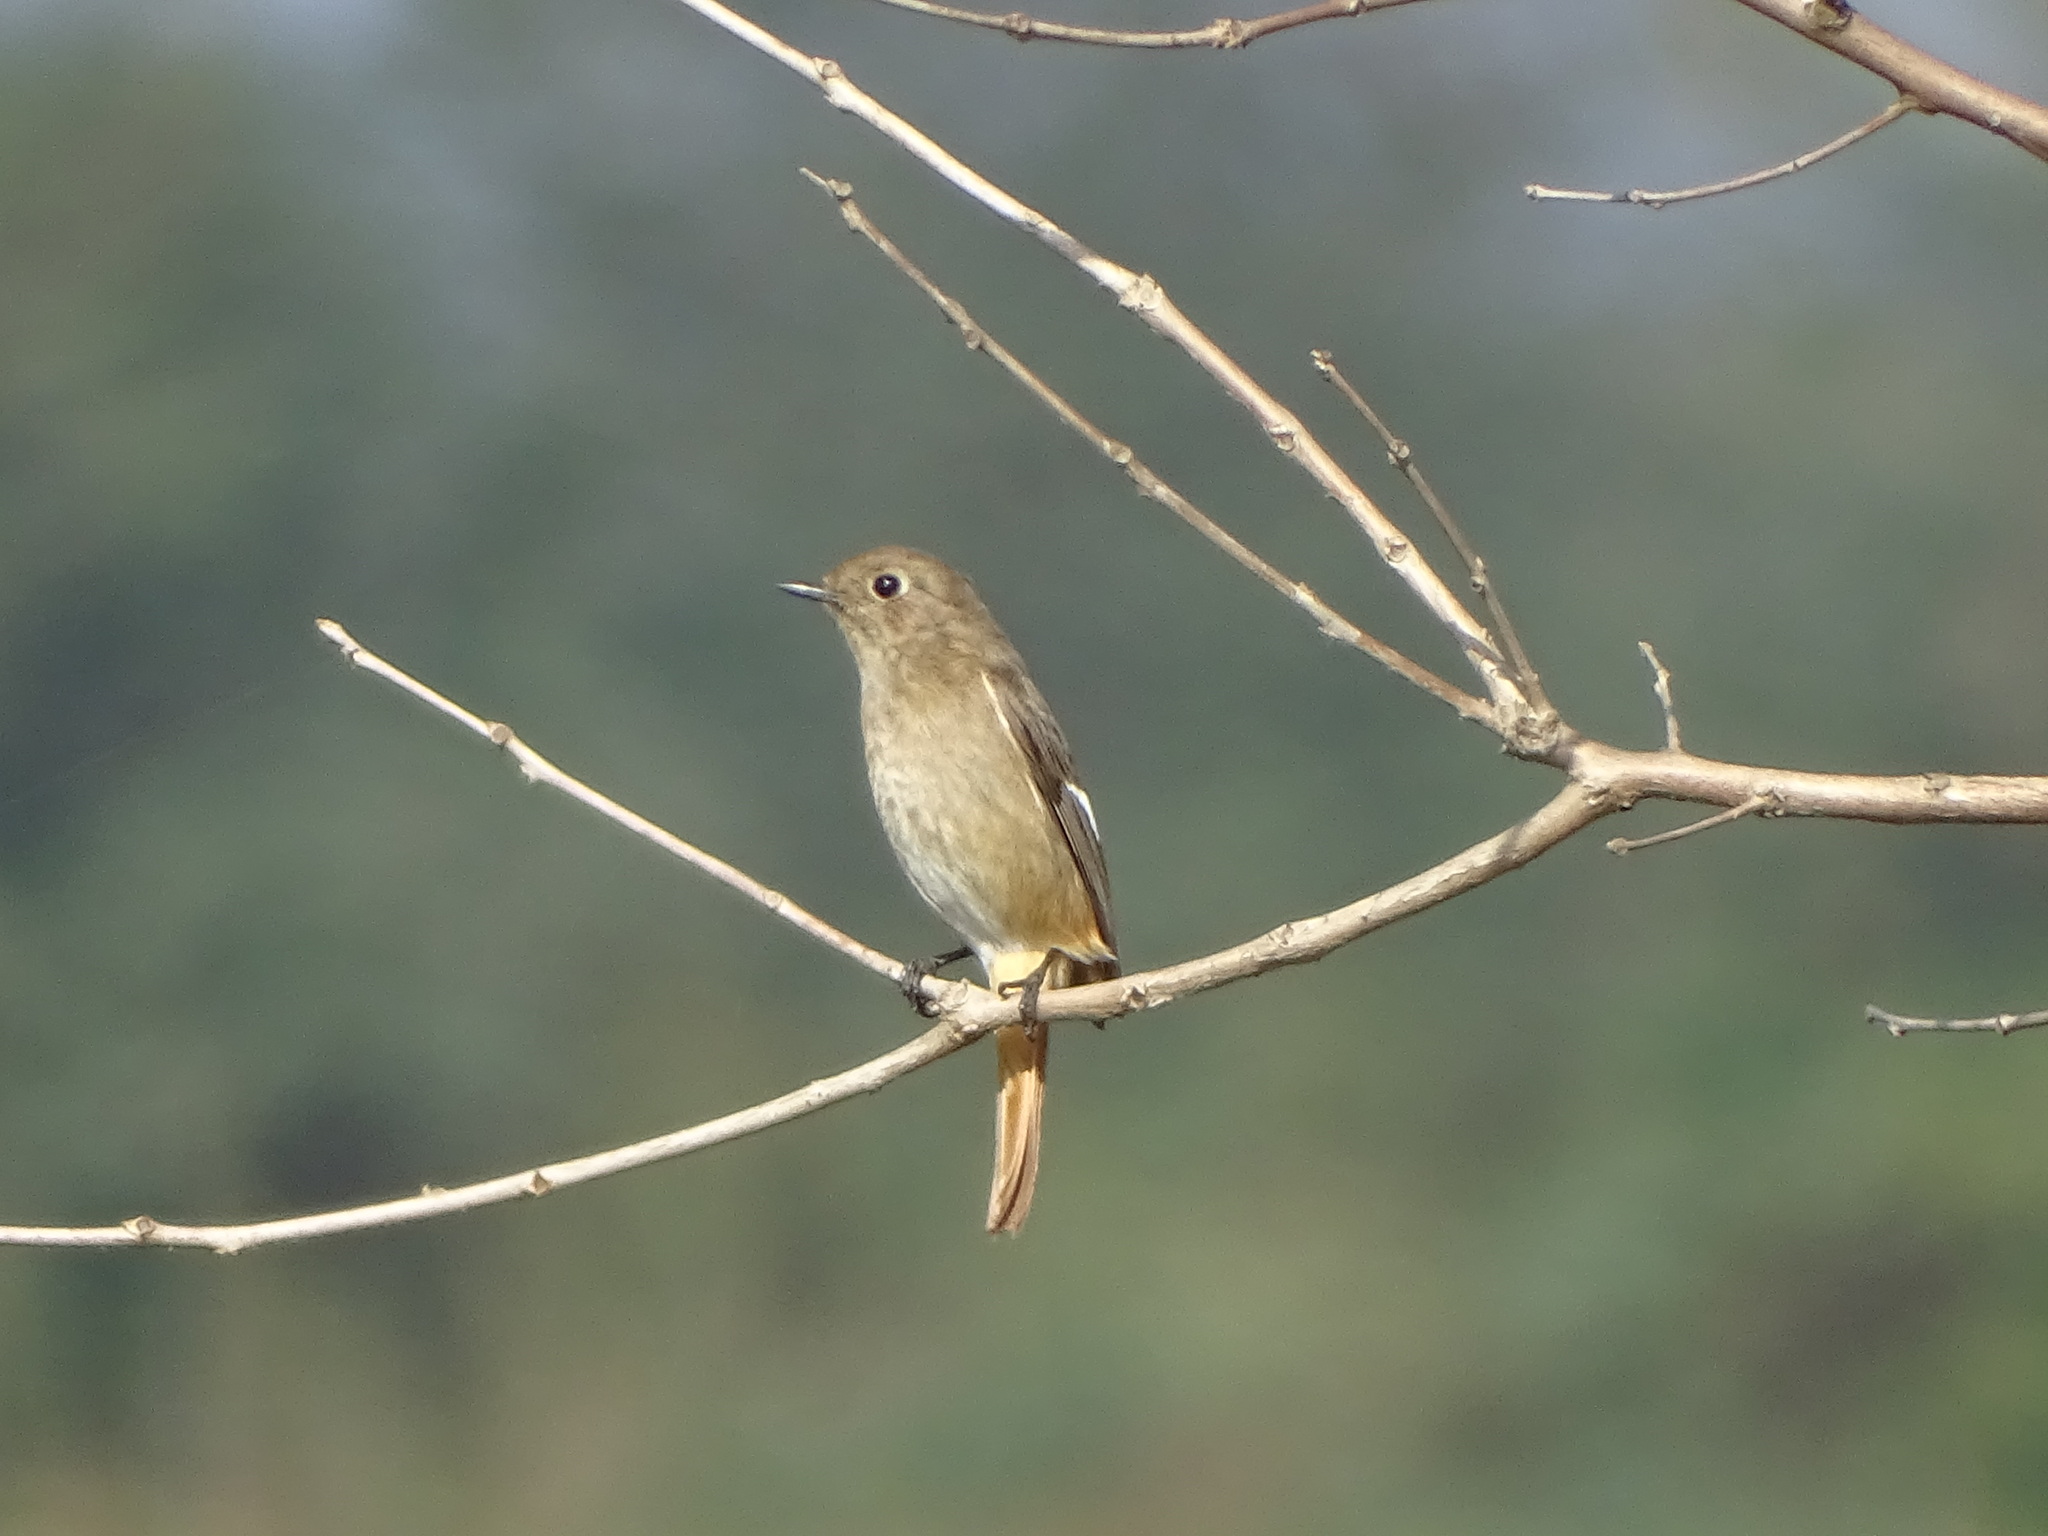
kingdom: Animalia
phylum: Chordata
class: Aves
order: Passeriformes
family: Muscicapidae
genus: Phoenicurus
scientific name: Phoenicurus auroreus
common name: Daurian redstart
